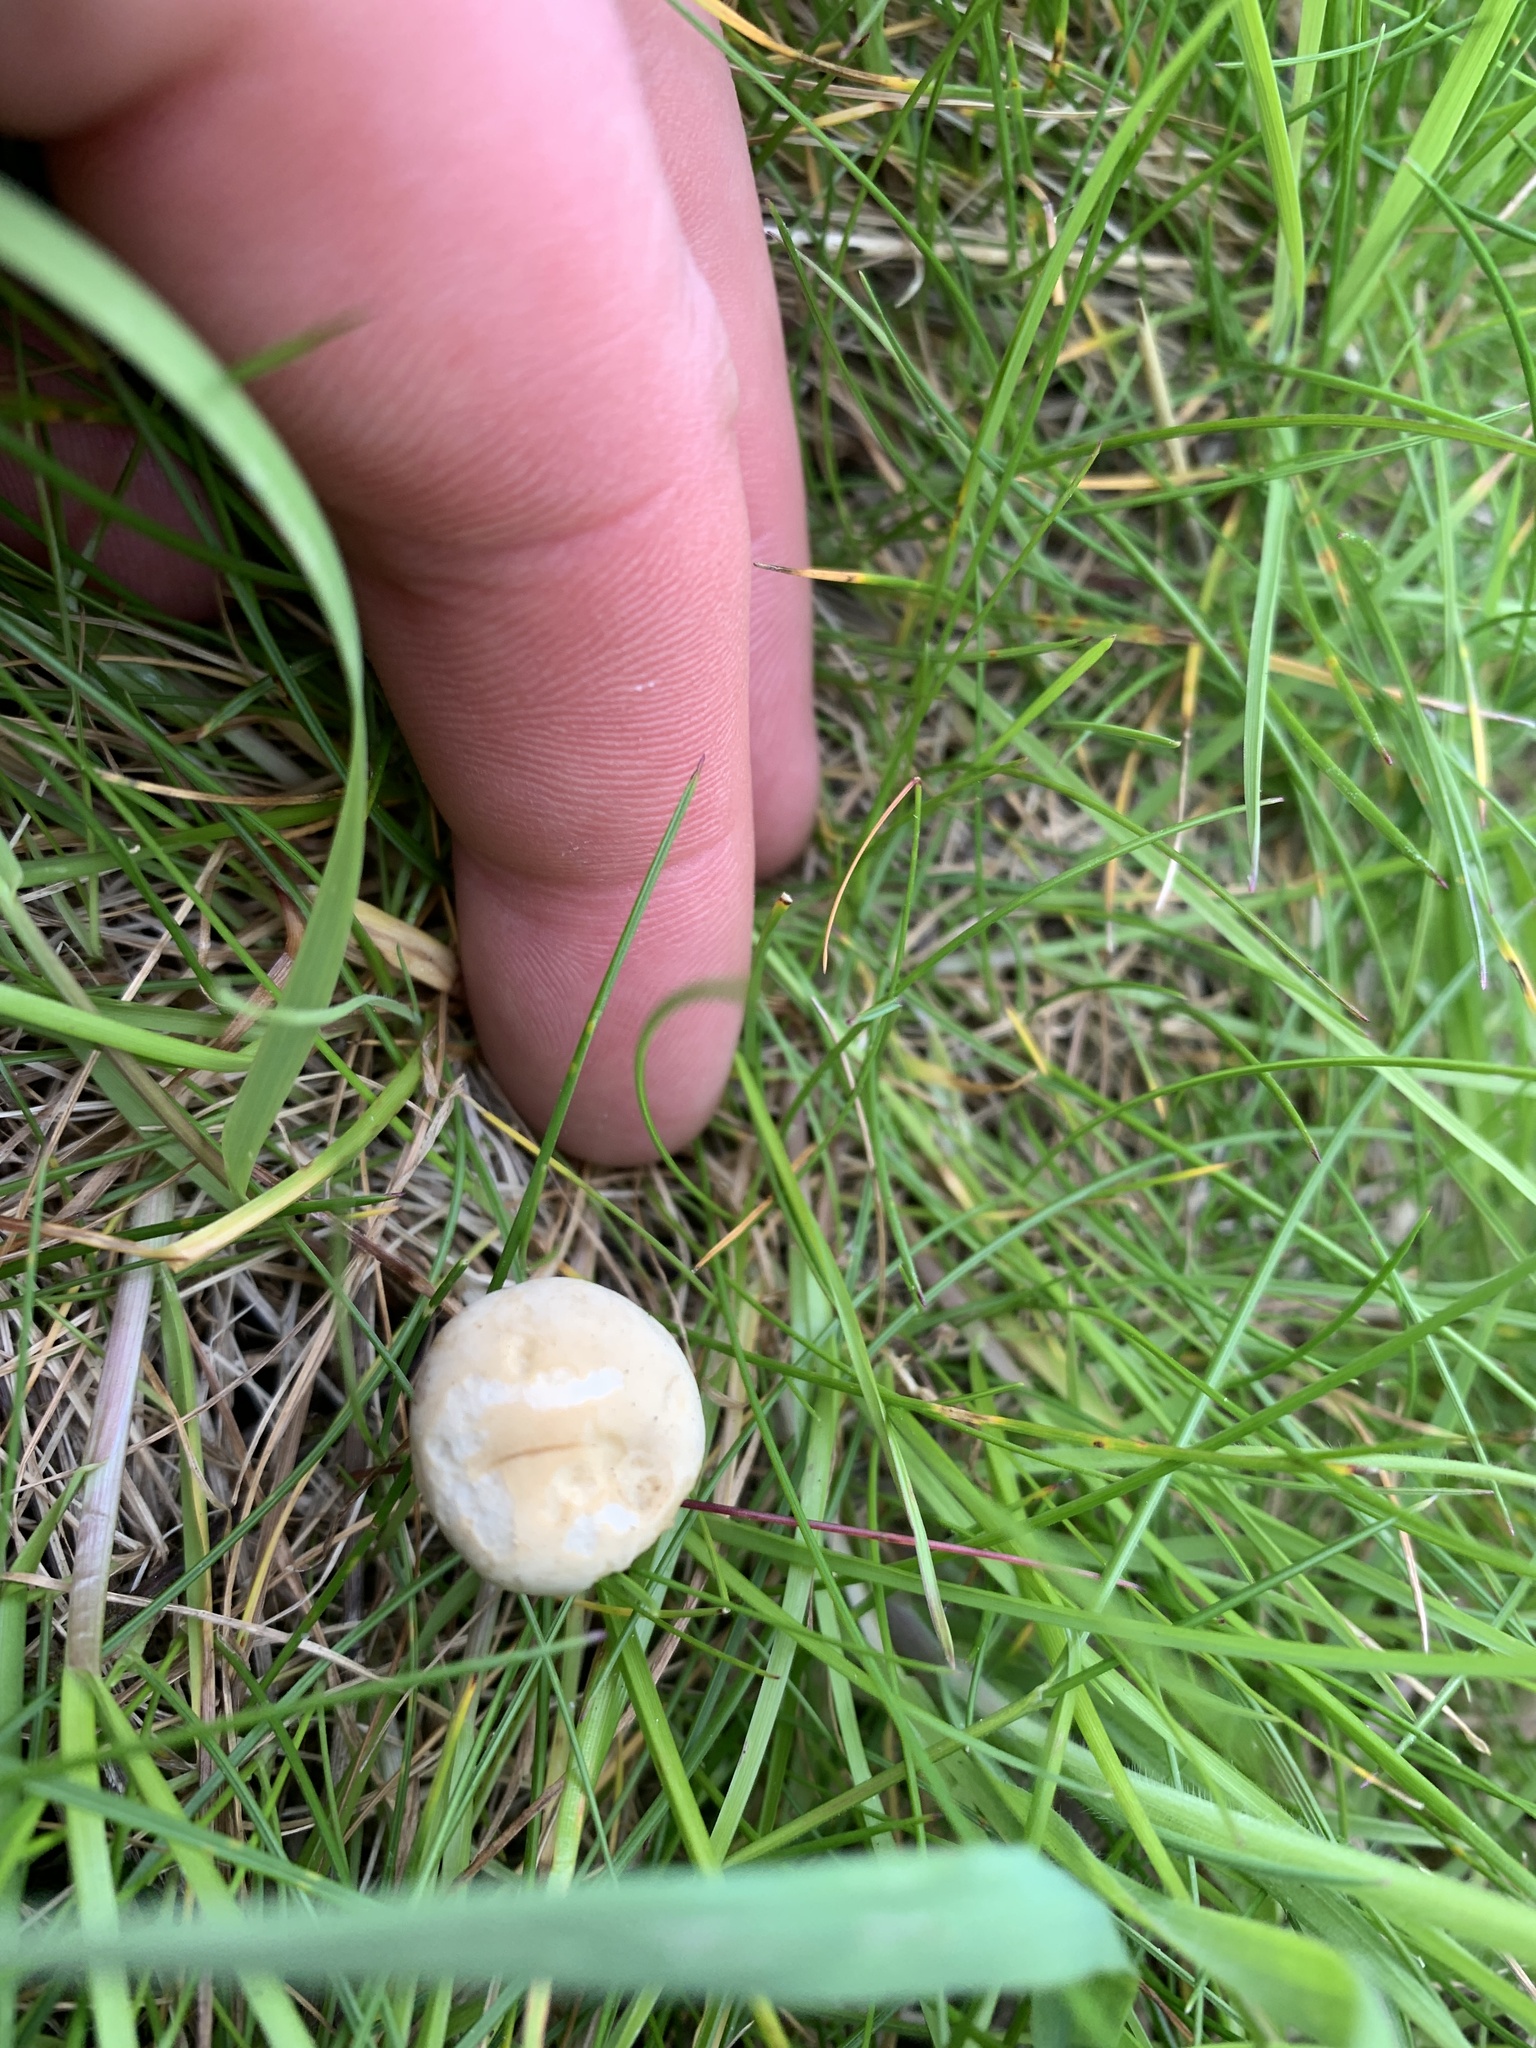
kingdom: Fungi
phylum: Basidiomycota
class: Agaricomycetes
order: Agaricales
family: Lyophyllaceae
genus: Calocybe
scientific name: Calocybe gambosa
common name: St. george's mushroom
